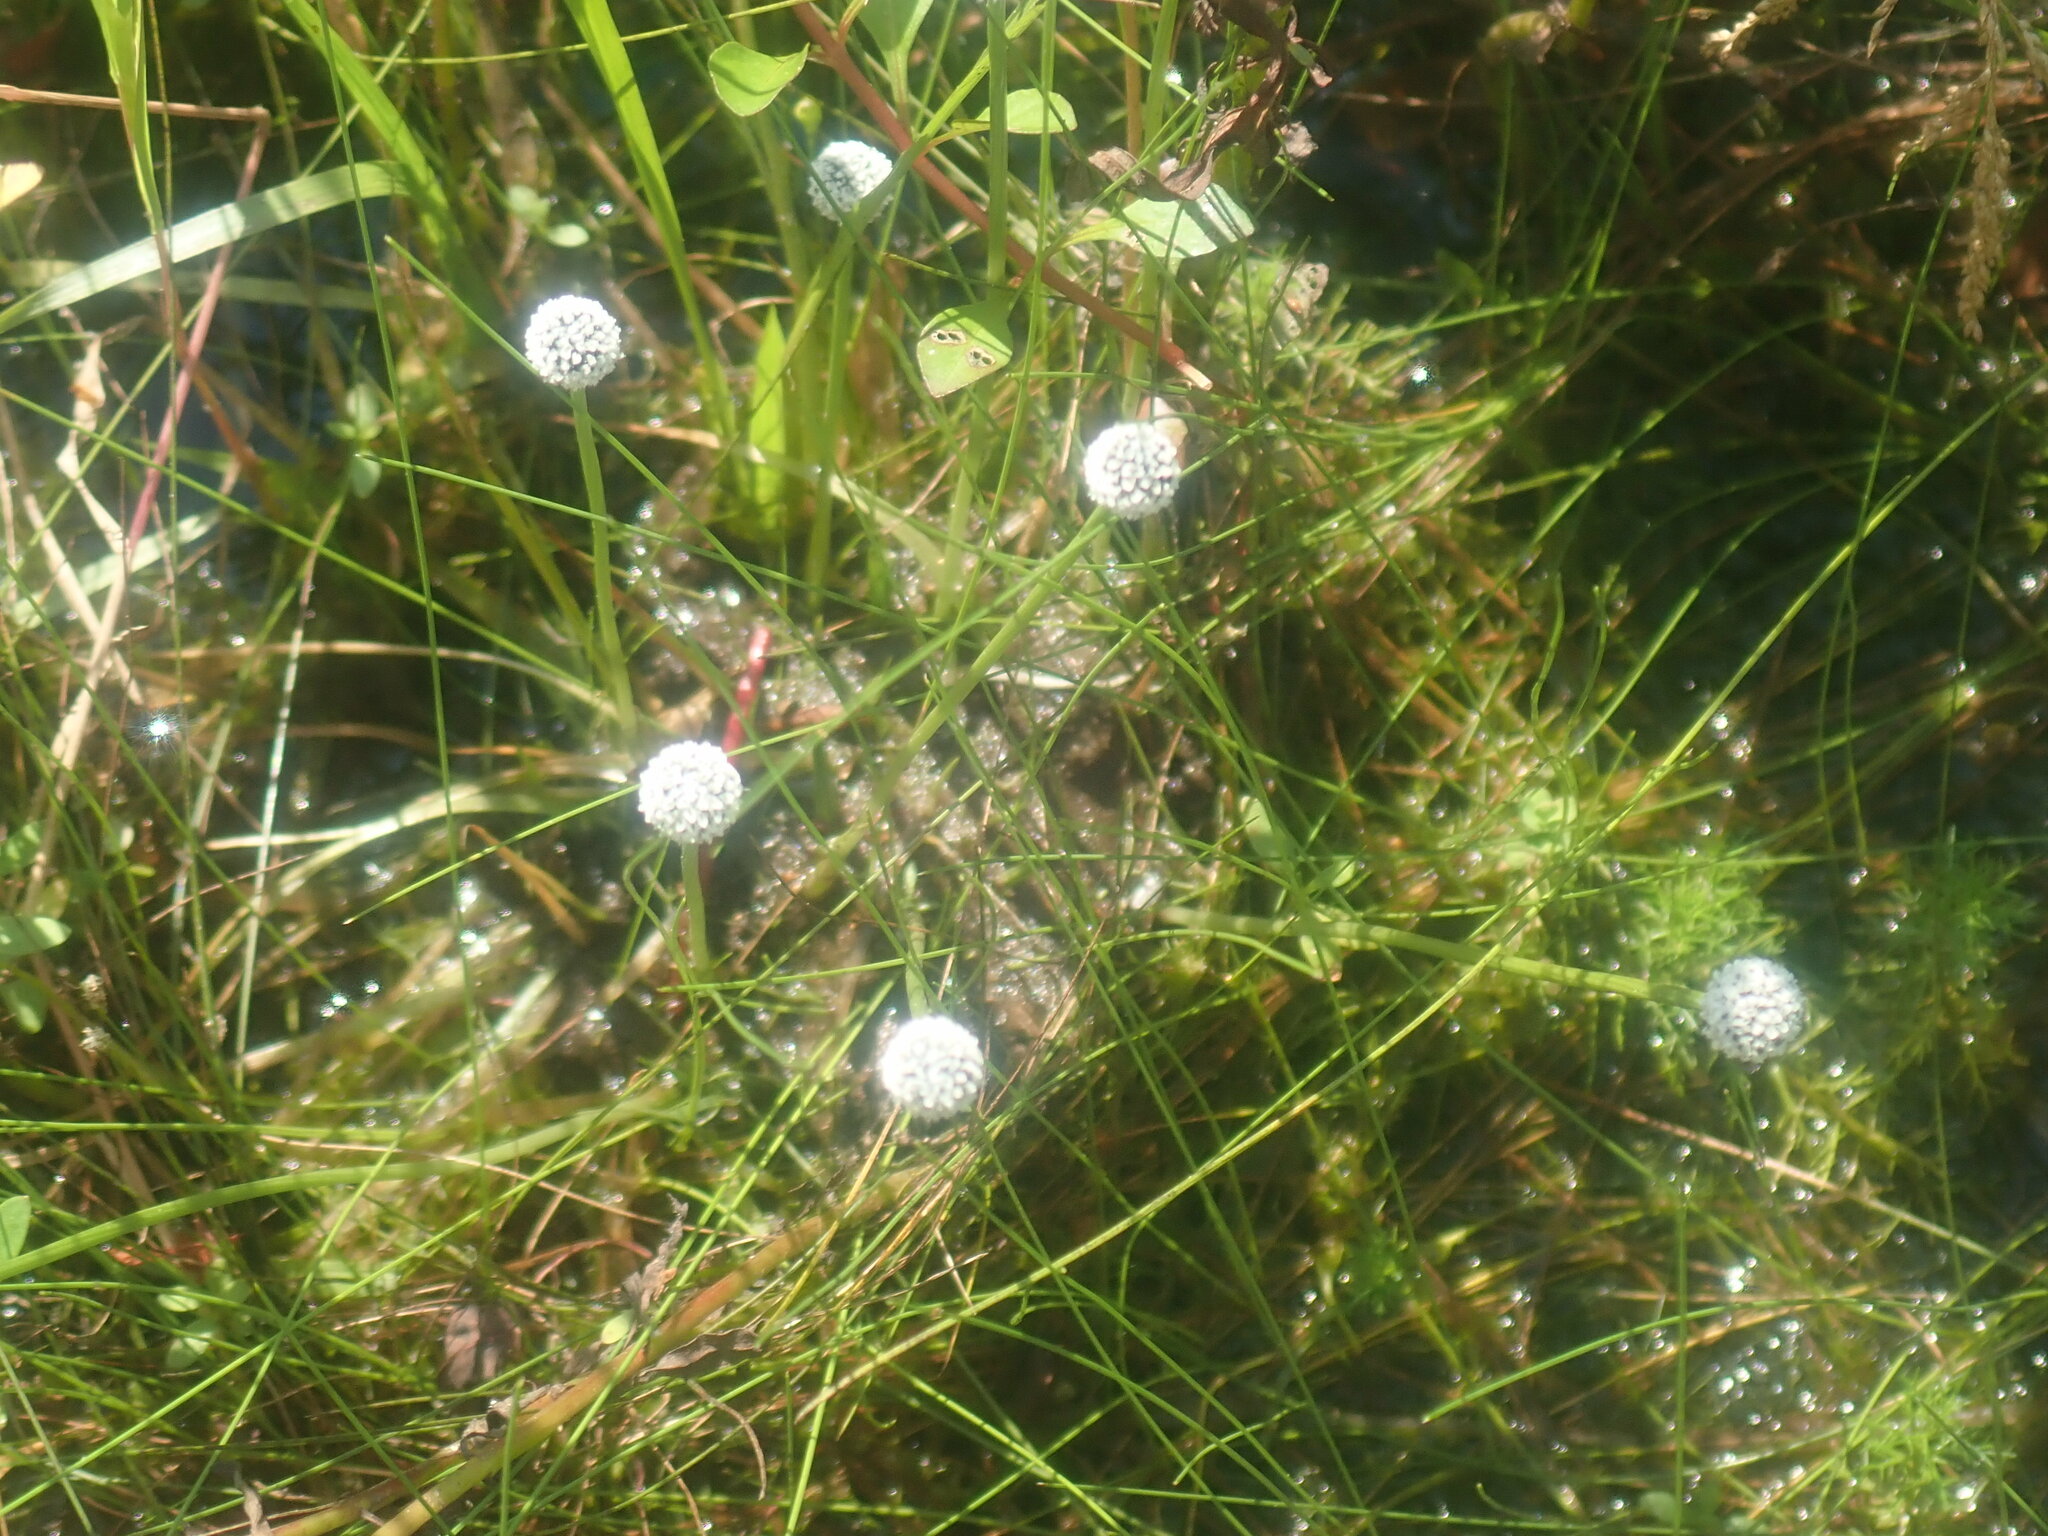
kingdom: Plantae
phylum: Tracheophyta
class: Liliopsida
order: Poales
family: Eriocaulaceae
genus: Eriocaulon
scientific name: Eriocaulon aquaticum
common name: Pipewort
